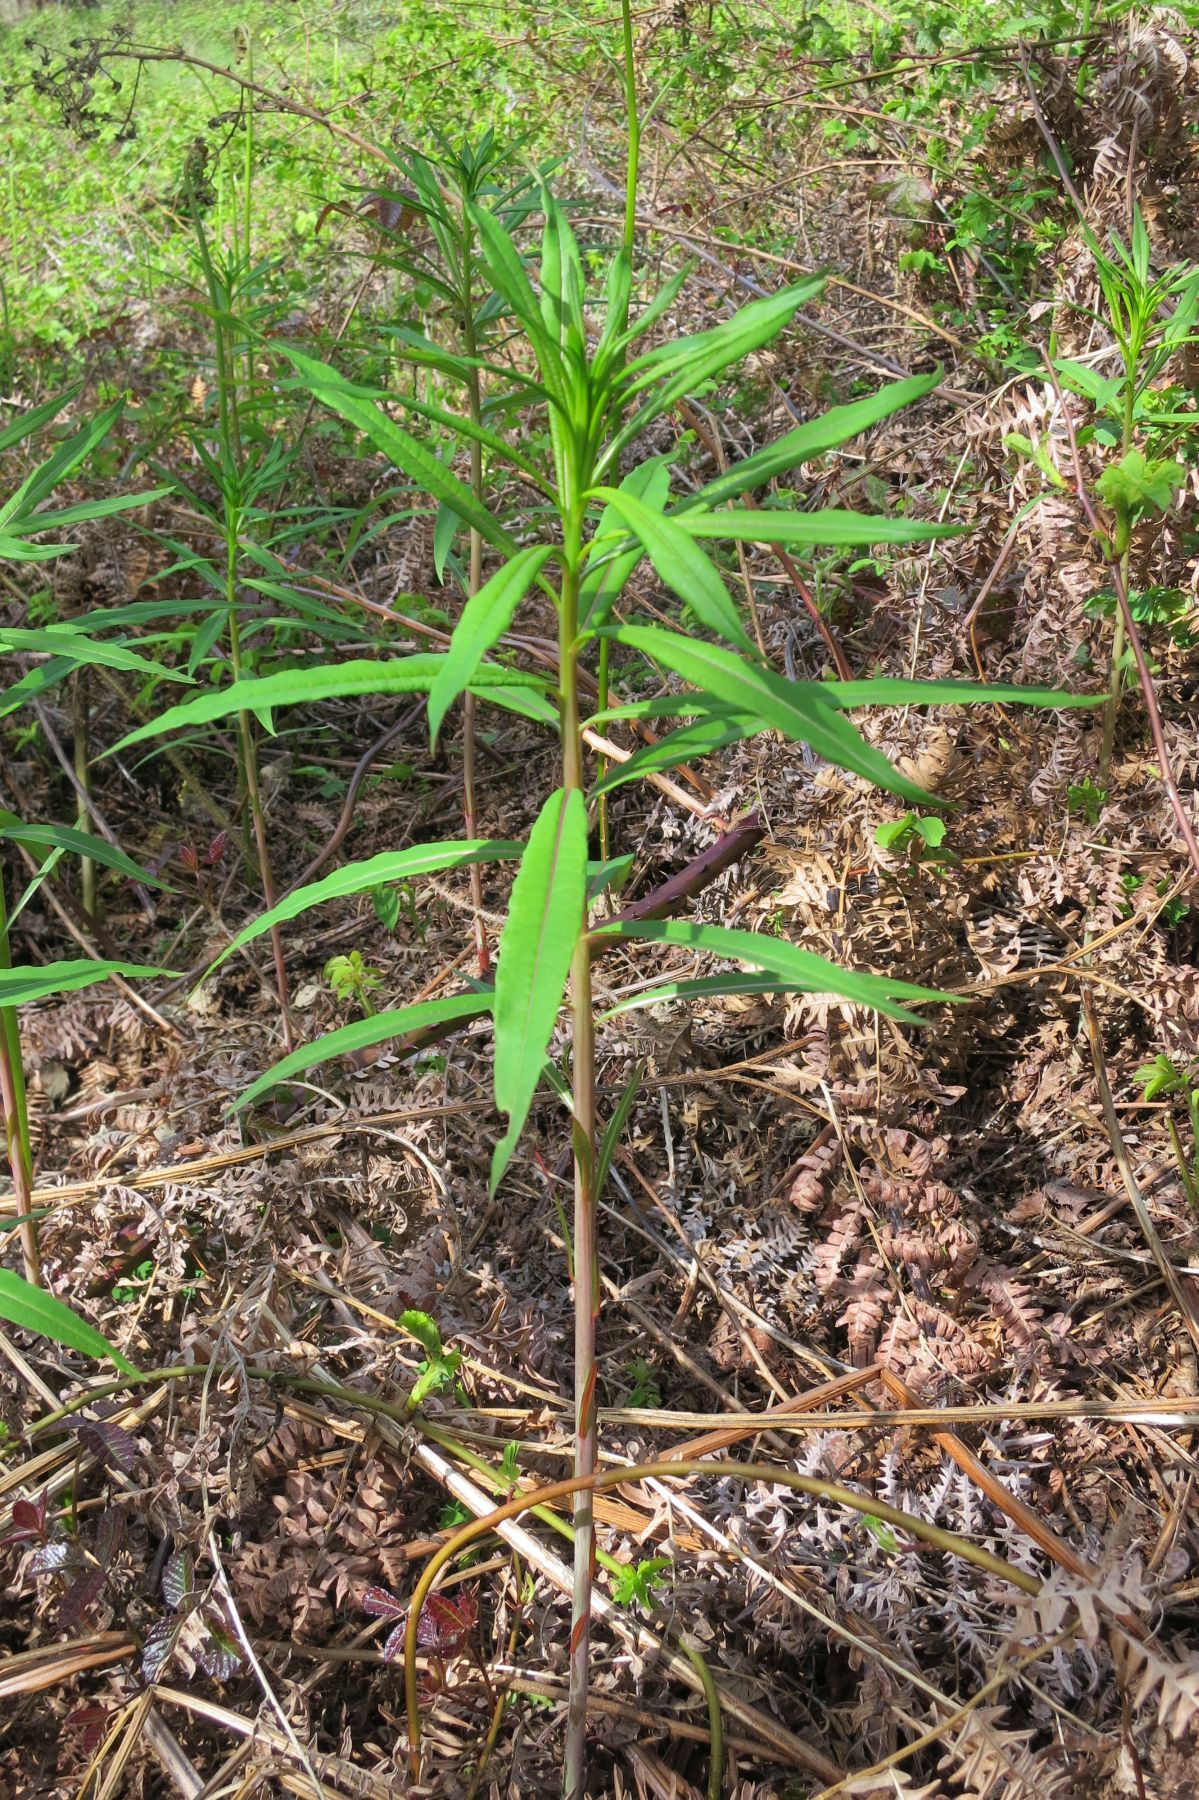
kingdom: Plantae
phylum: Tracheophyta
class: Magnoliopsida
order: Myrtales
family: Onagraceae
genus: Chamaenerion
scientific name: Chamaenerion angustifolium
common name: Fireweed
